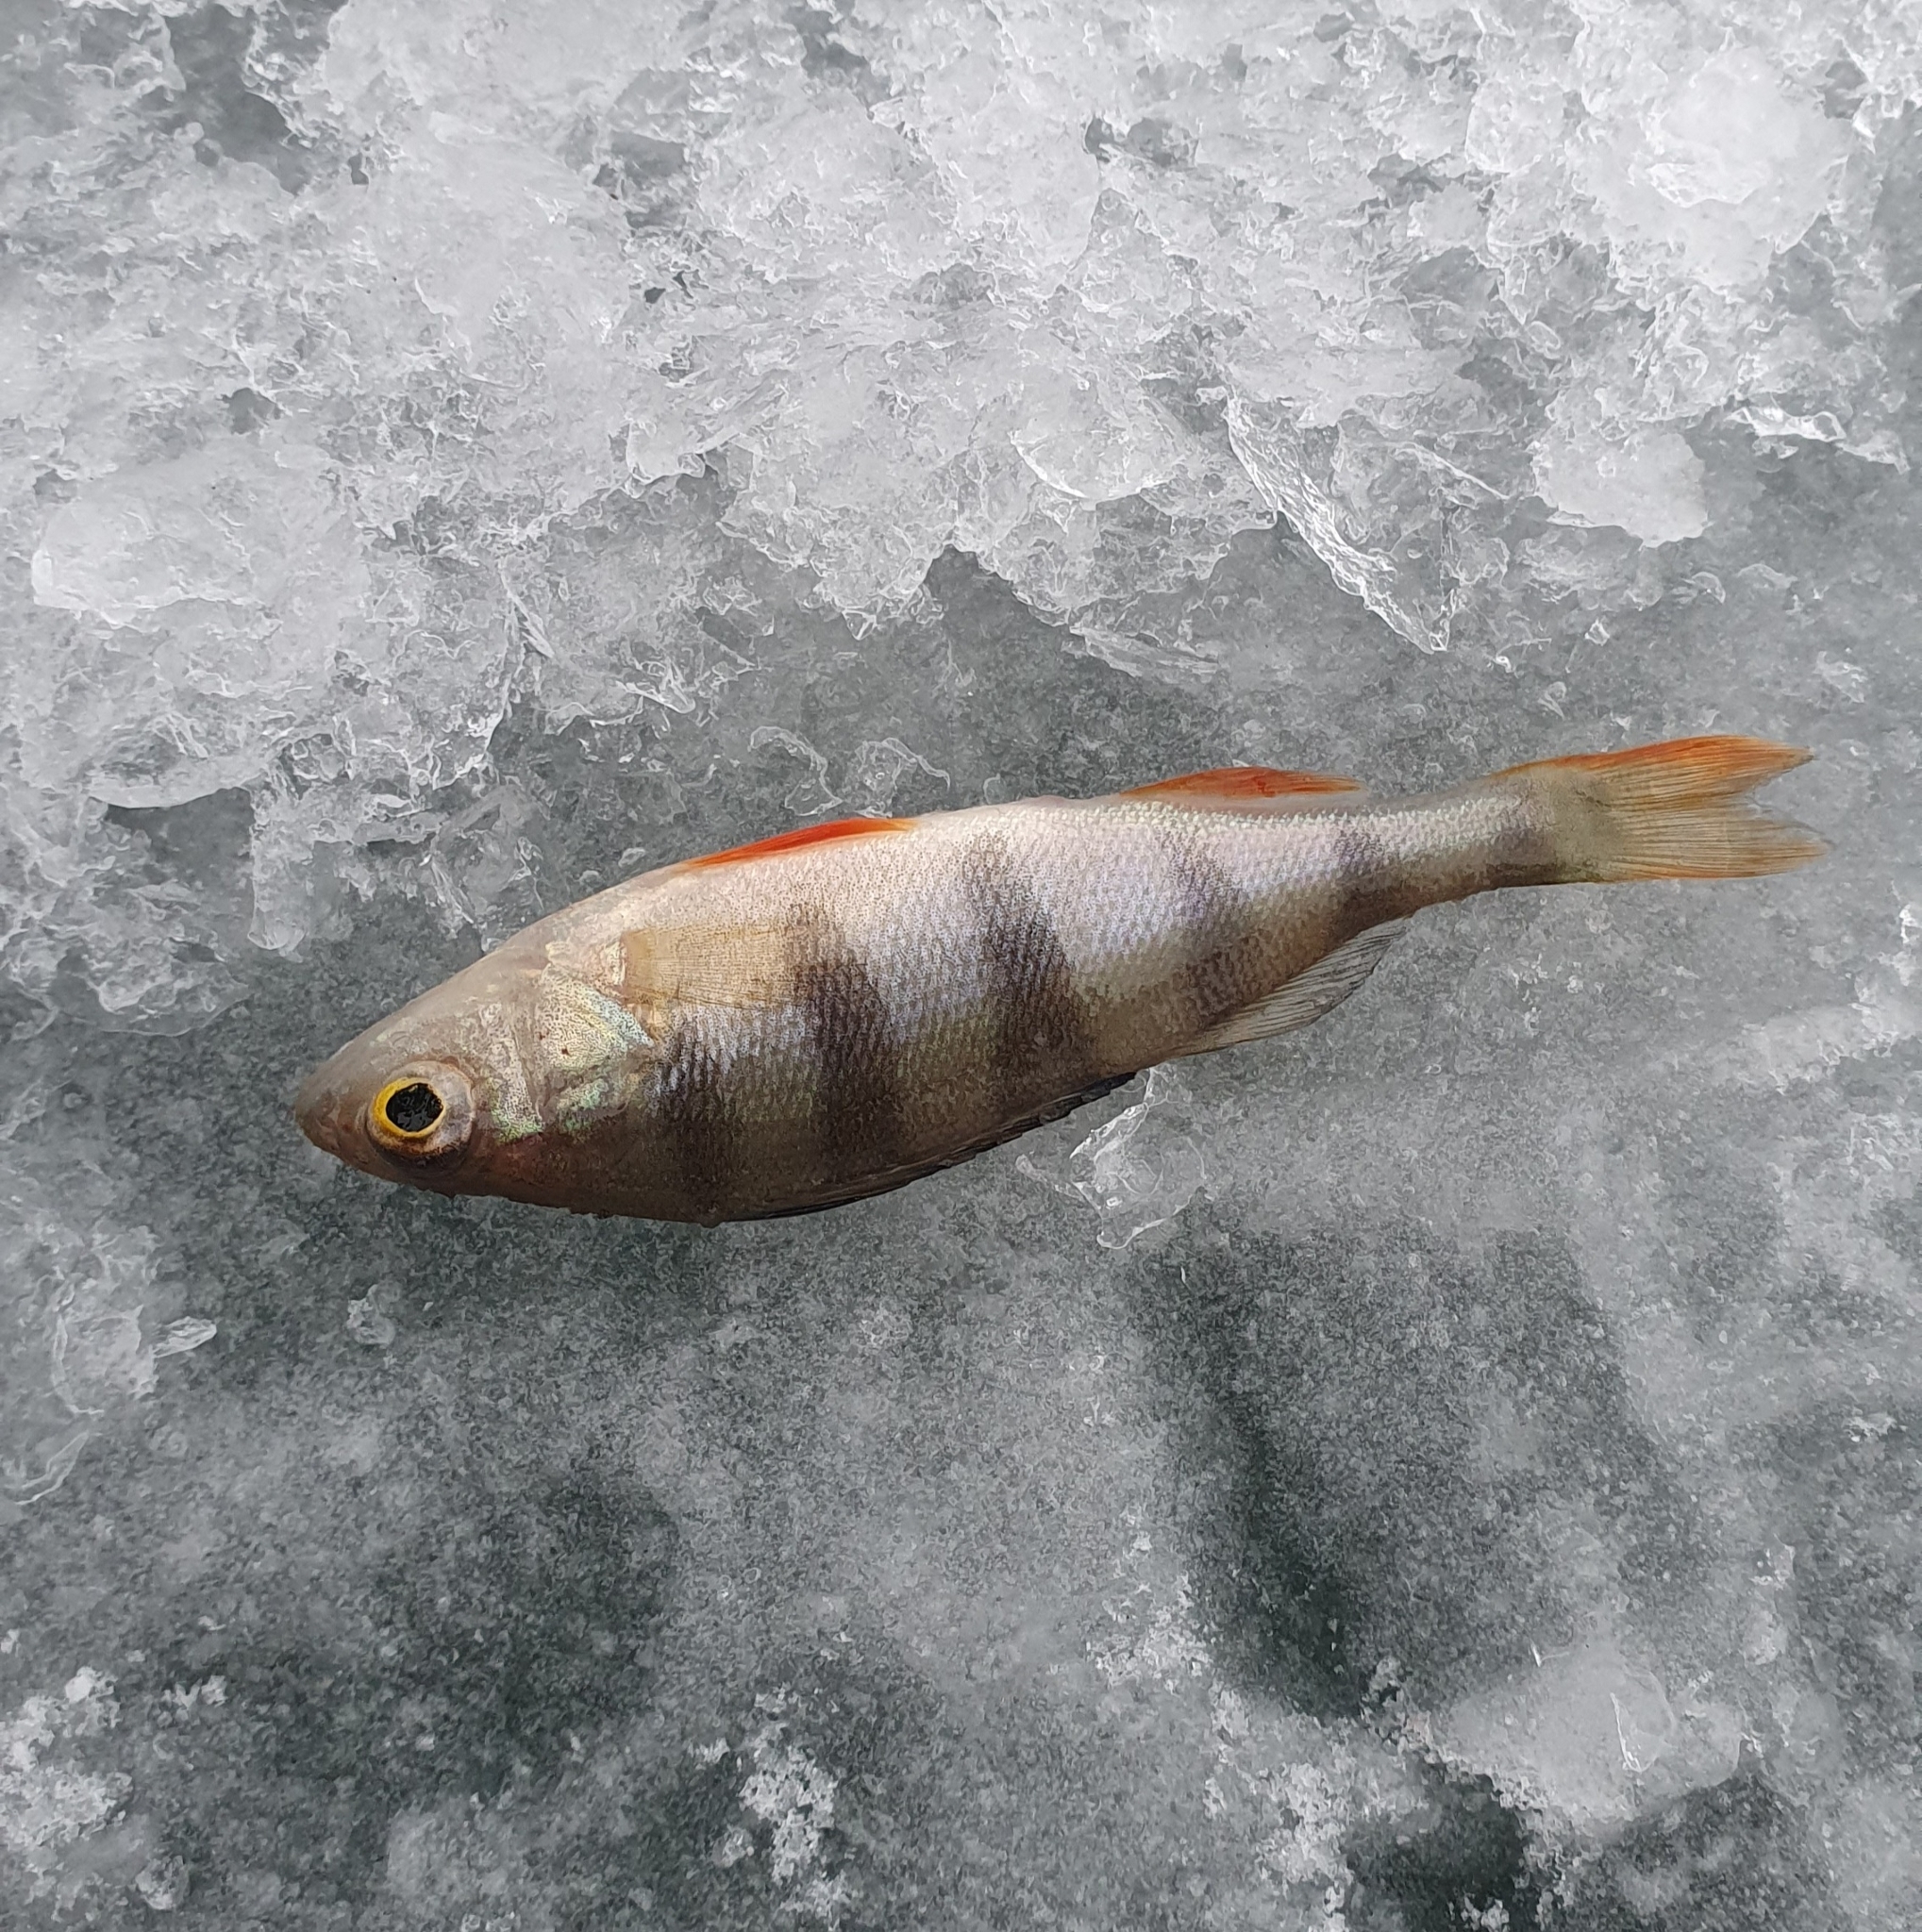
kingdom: Animalia
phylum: Chordata
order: Perciformes
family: Percidae
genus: Perca
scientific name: Perca fluviatilis
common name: Perch
